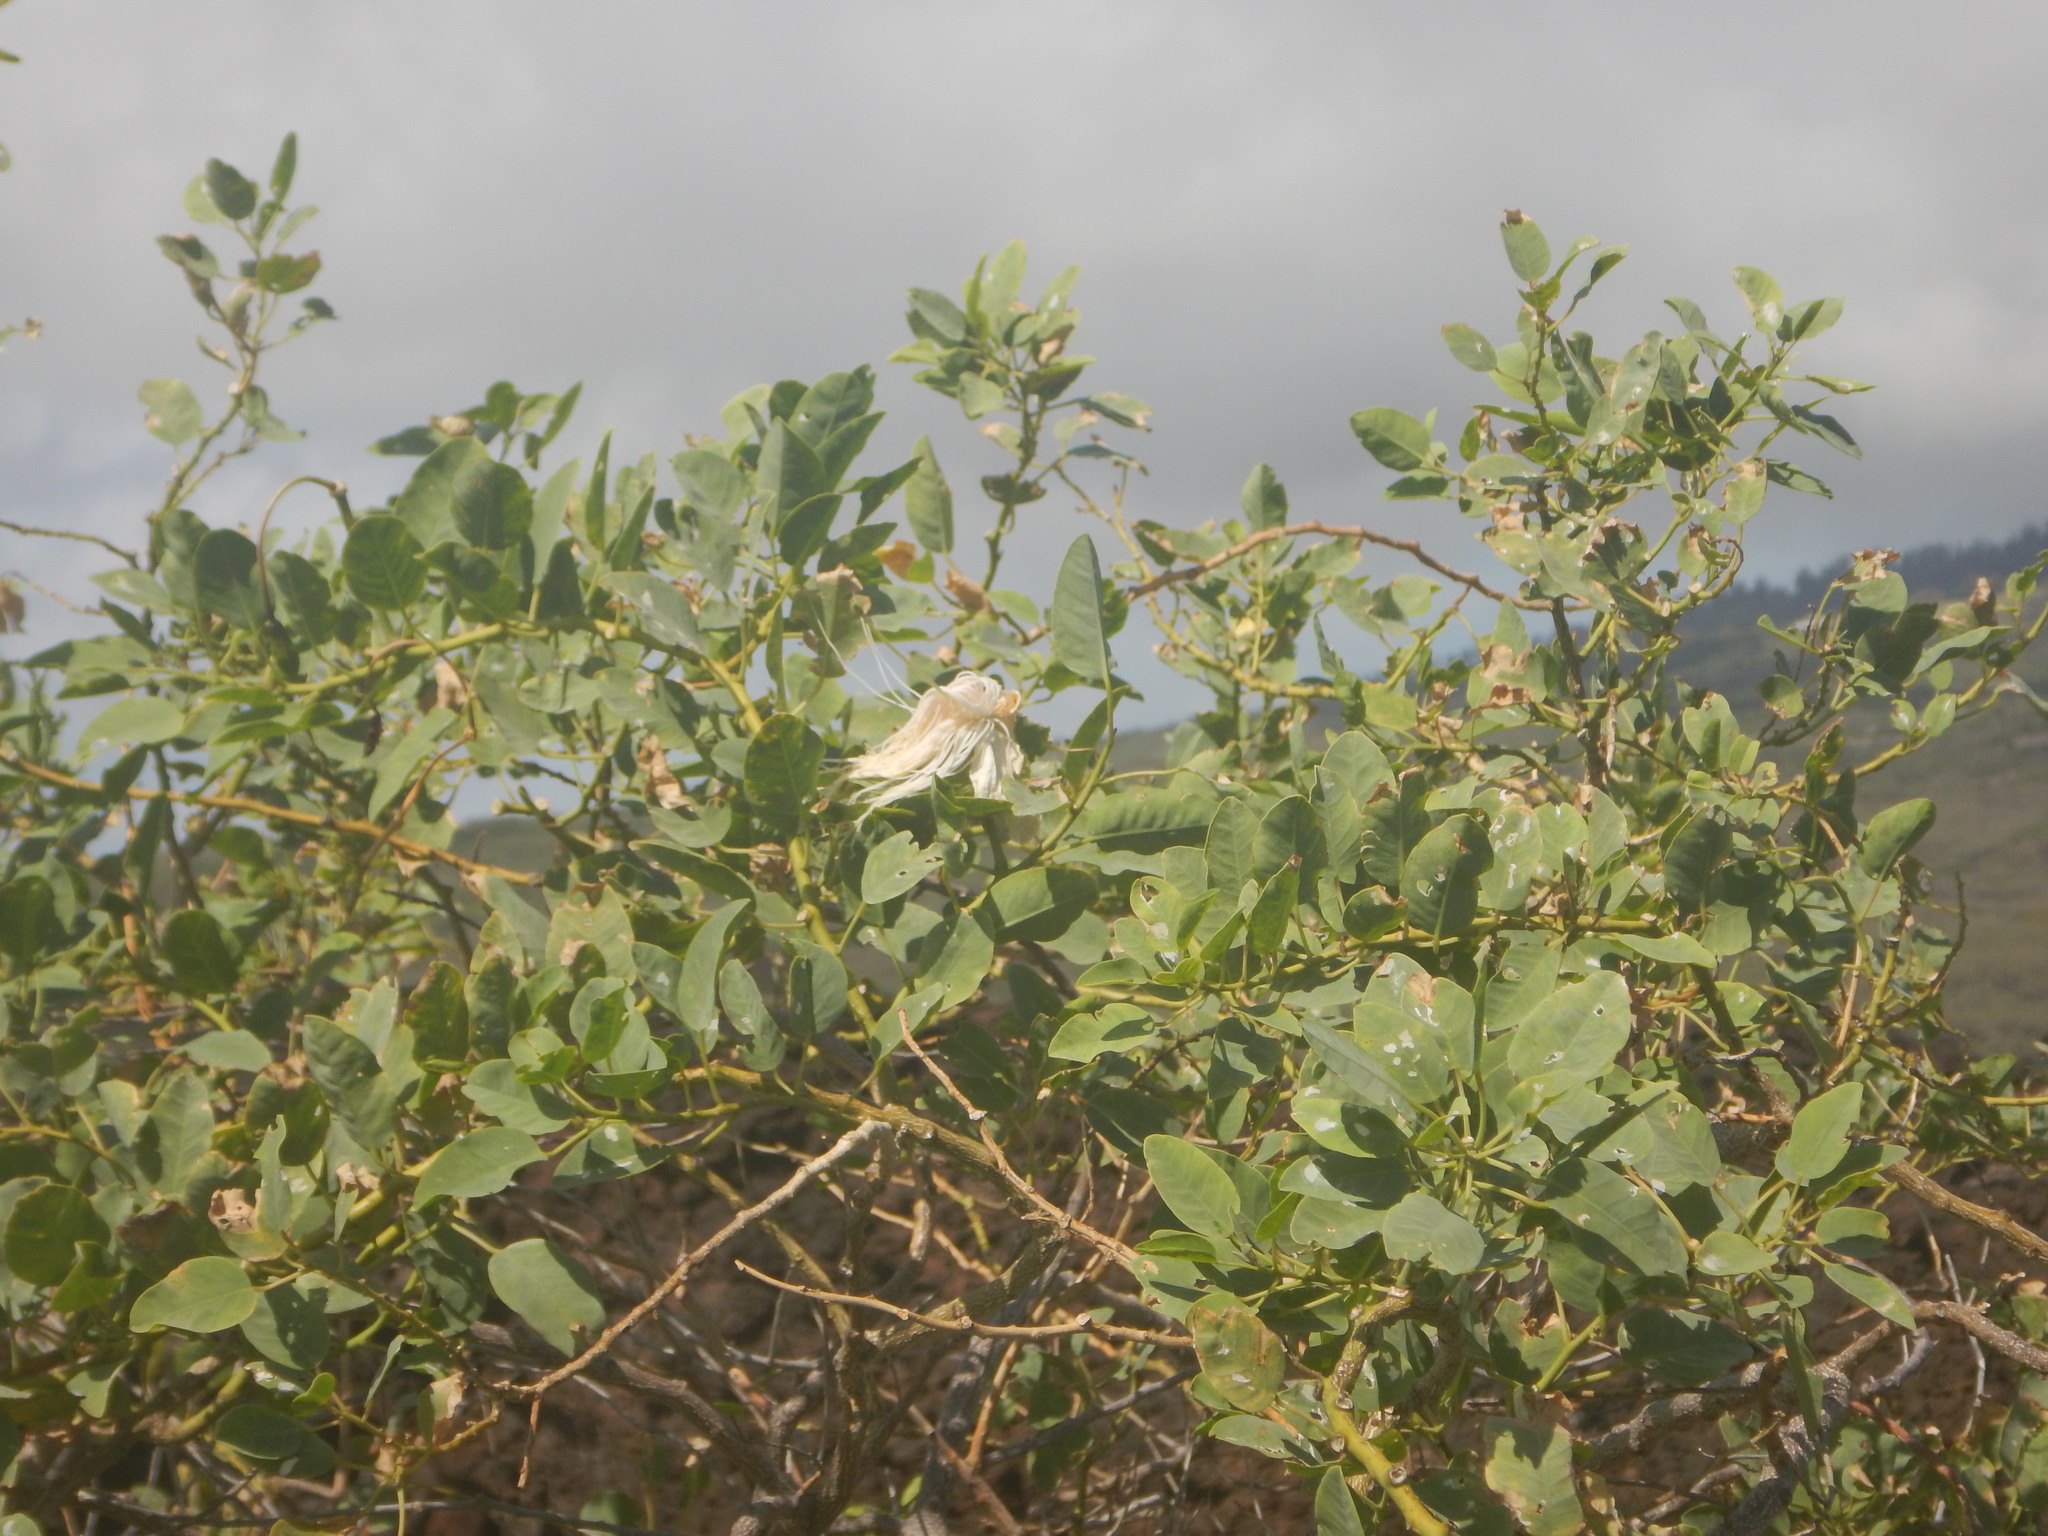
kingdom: Plantae
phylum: Tracheophyta
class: Magnoliopsida
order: Brassicales
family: Capparaceae
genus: Capparis
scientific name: Capparis spinosa
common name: Caper
